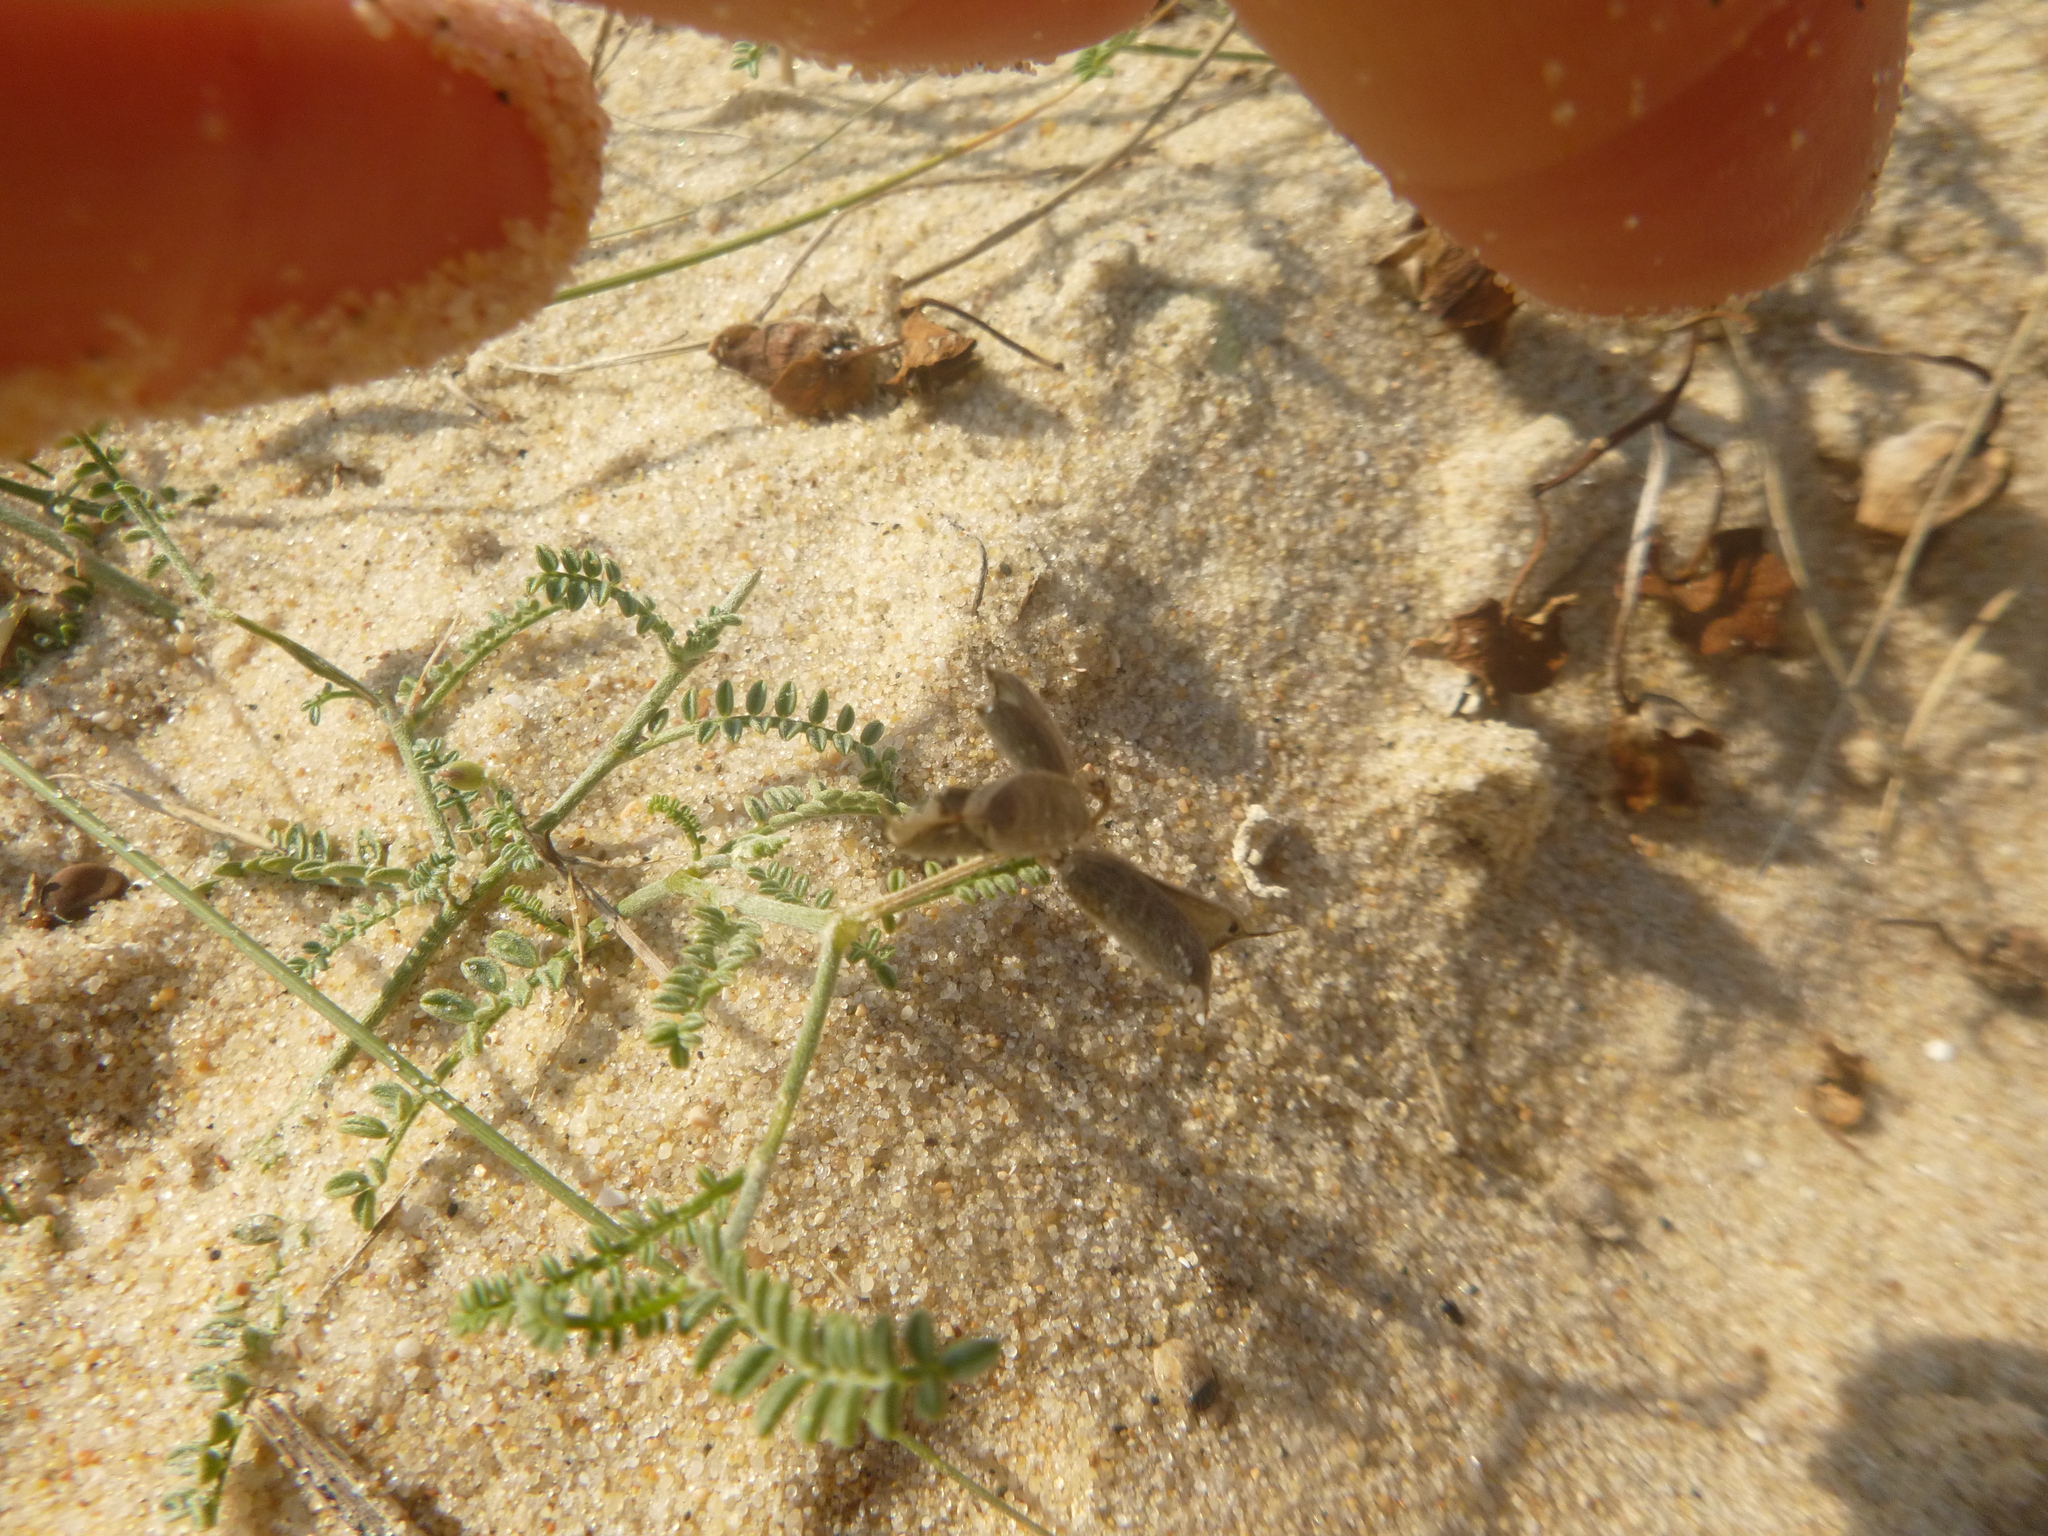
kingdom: Plantae
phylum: Tracheophyta
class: Magnoliopsida
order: Fabales
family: Fabaceae
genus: Astragalus
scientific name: Astragalus baionensis
